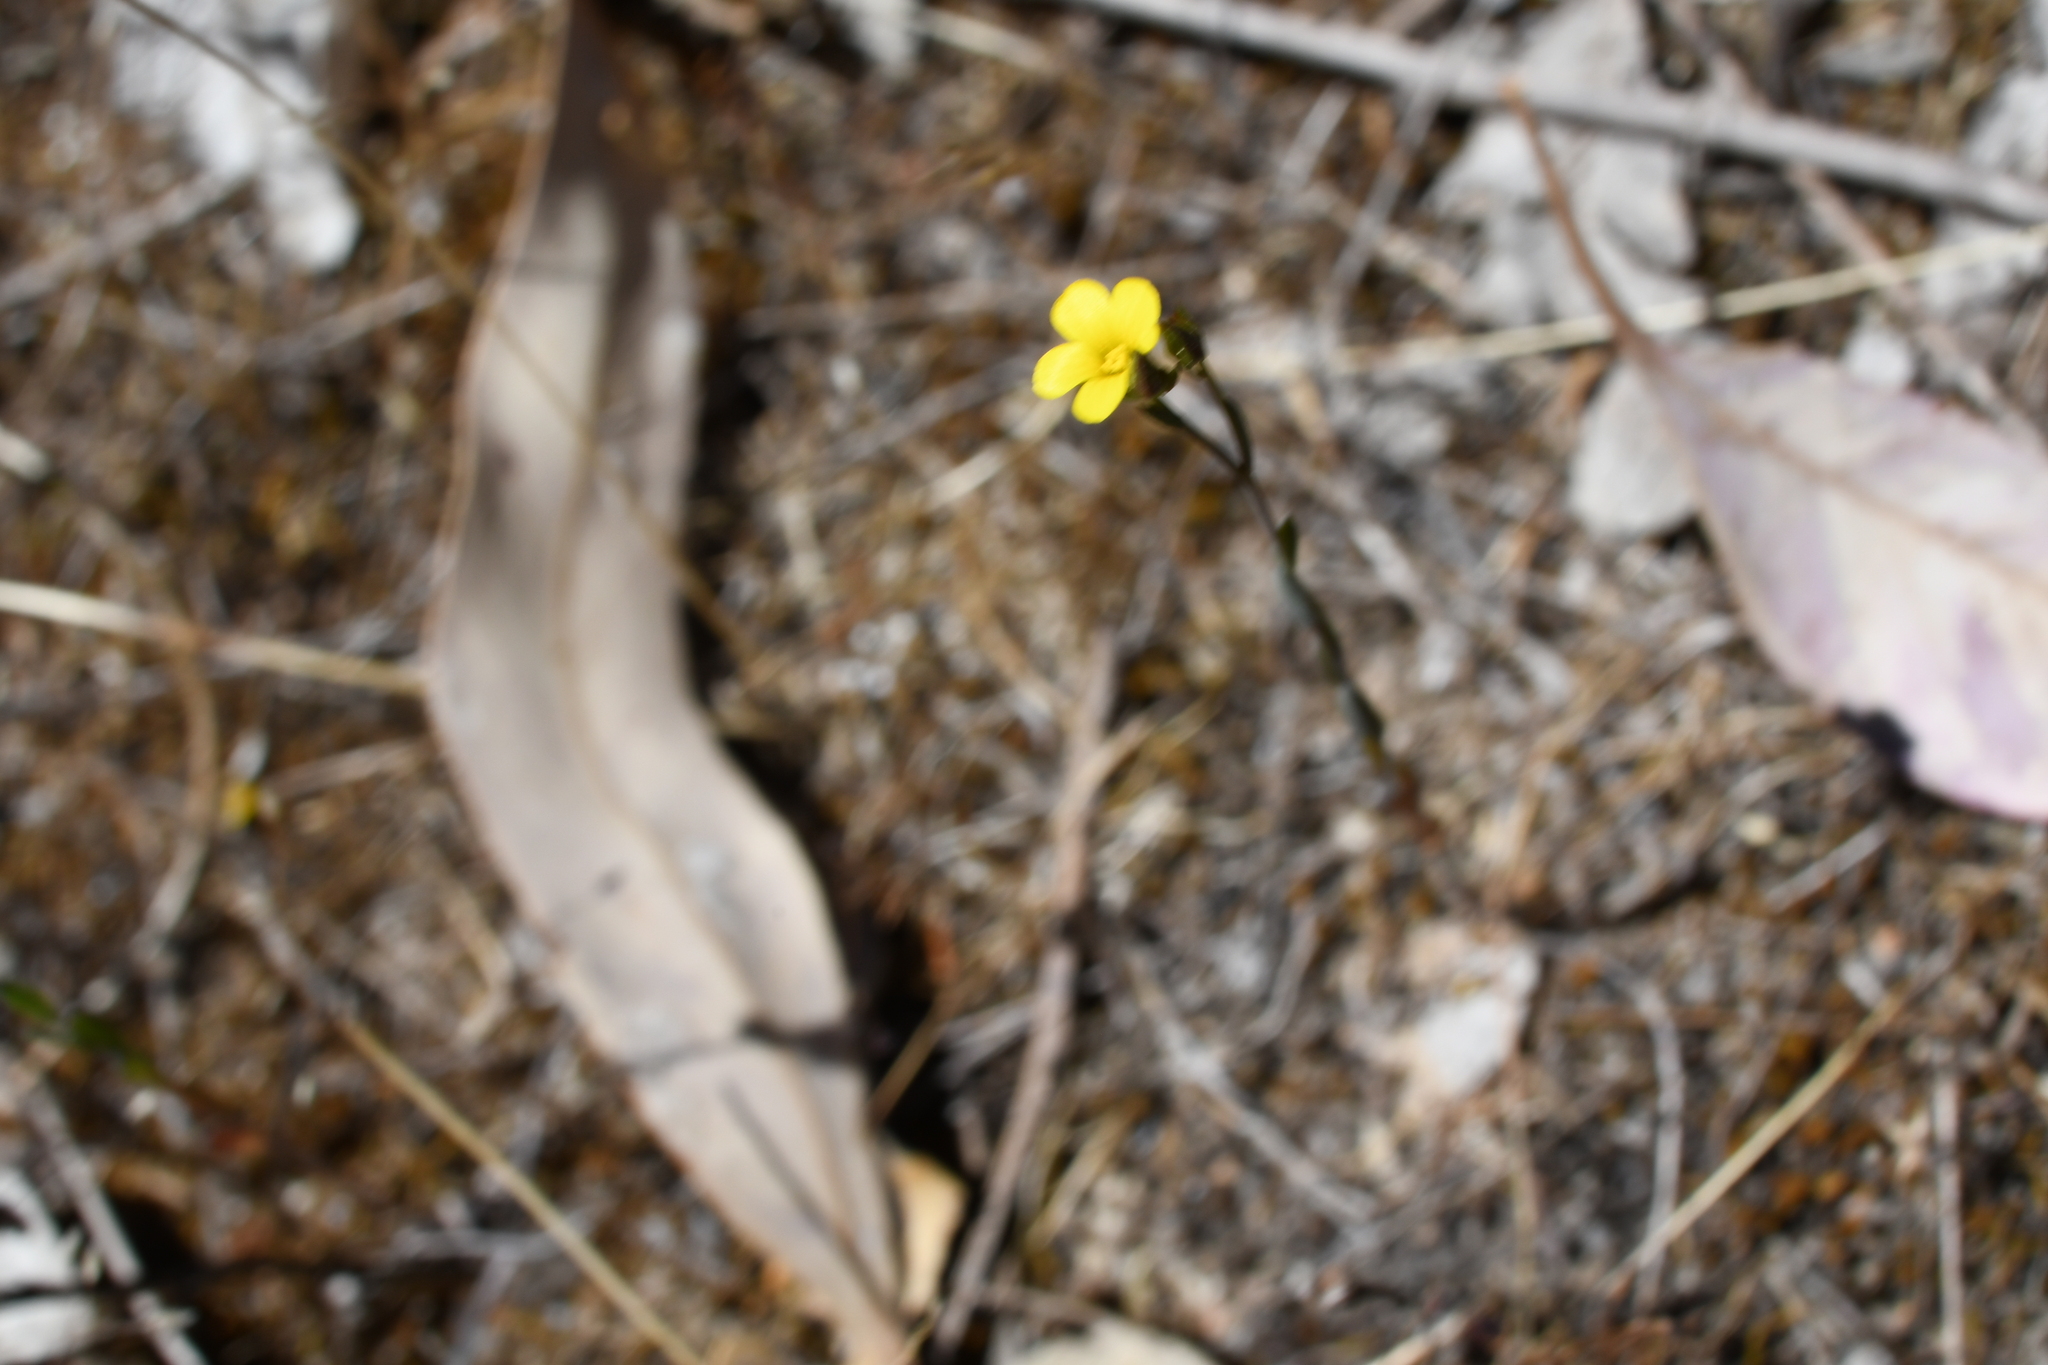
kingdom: Plantae
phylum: Tracheophyta
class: Magnoliopsida
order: Malpighiales
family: Linaceae
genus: Linum
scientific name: Linum trigynum
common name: French flax
